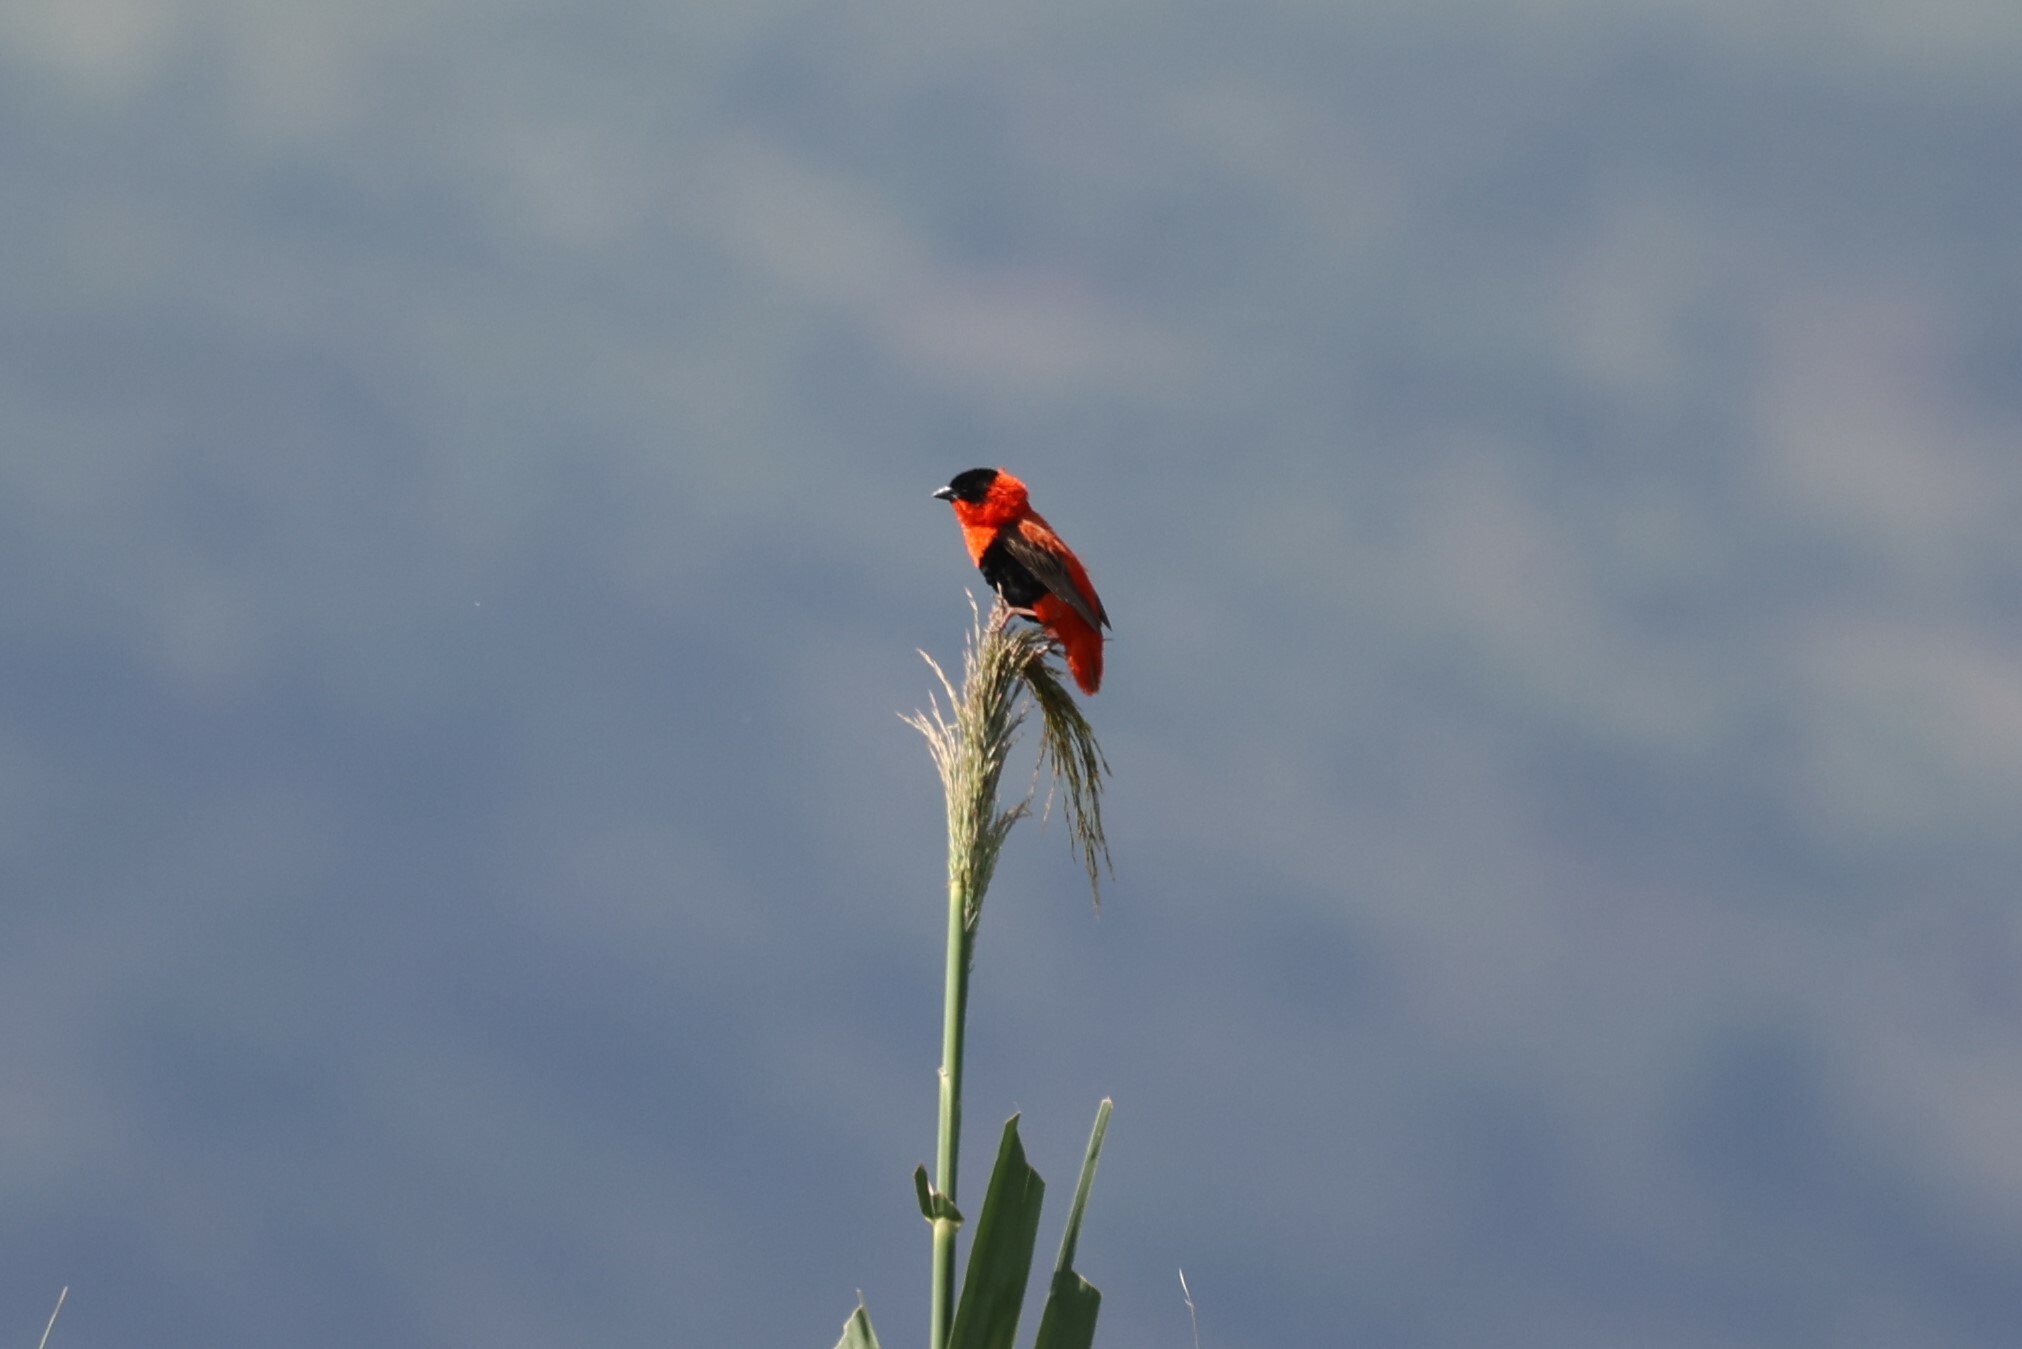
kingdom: Animalia
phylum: Chordata
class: Aves
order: Passeriformes
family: Ploceidae
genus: Euplectes
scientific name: Euplectes franciscanus
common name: Northern red bishop
